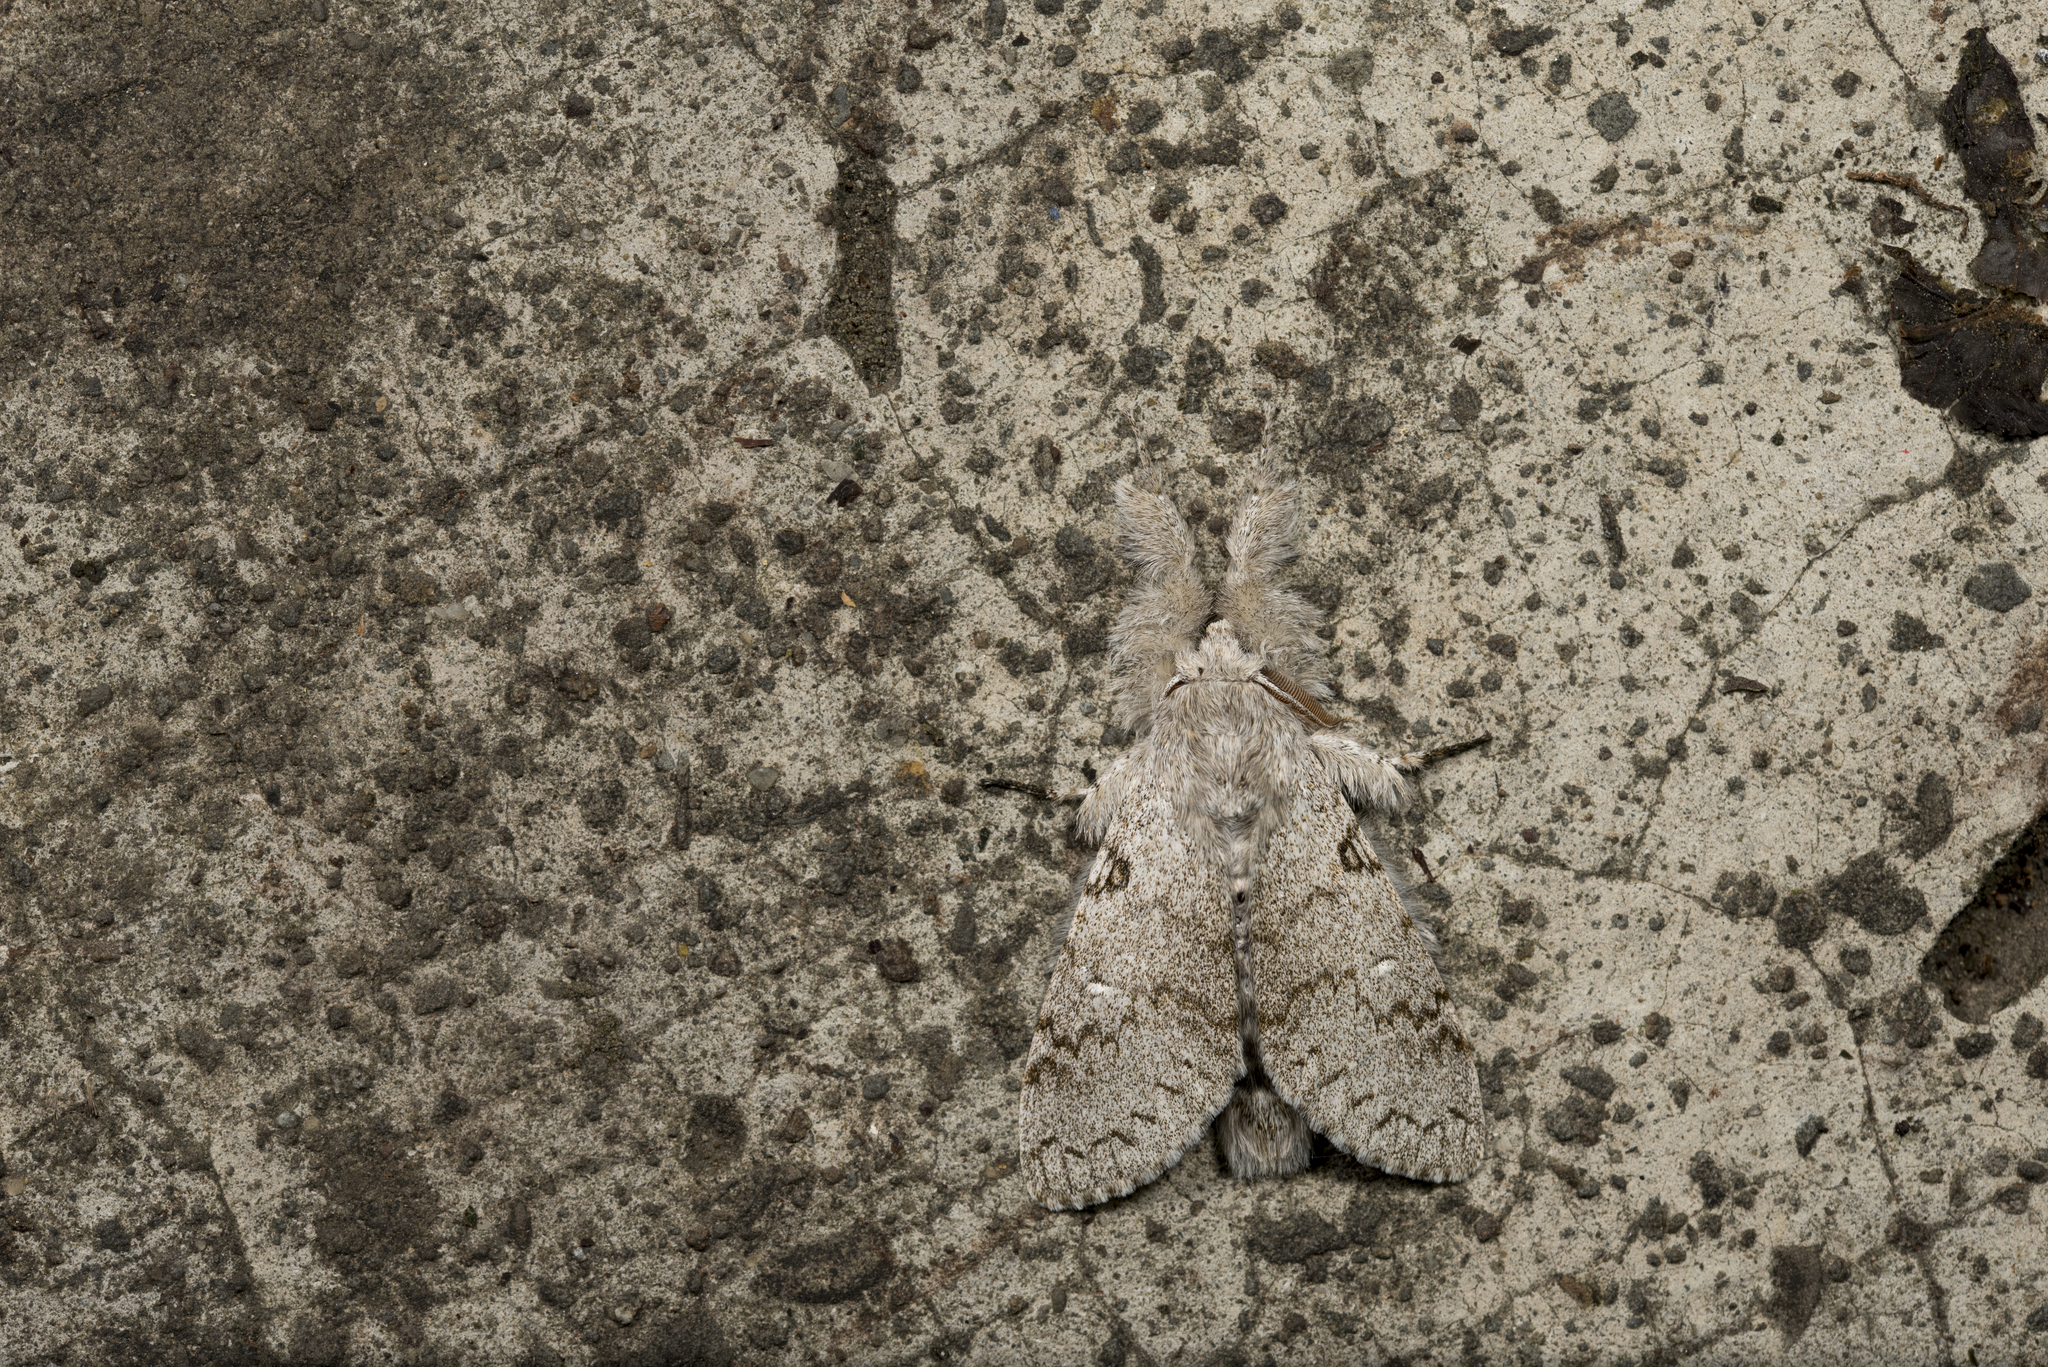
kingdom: Animalia
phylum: Arthropoda
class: Insecta
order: Lepidoptera
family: Erebidae
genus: Calliteara
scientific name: Calliteara lunulata
